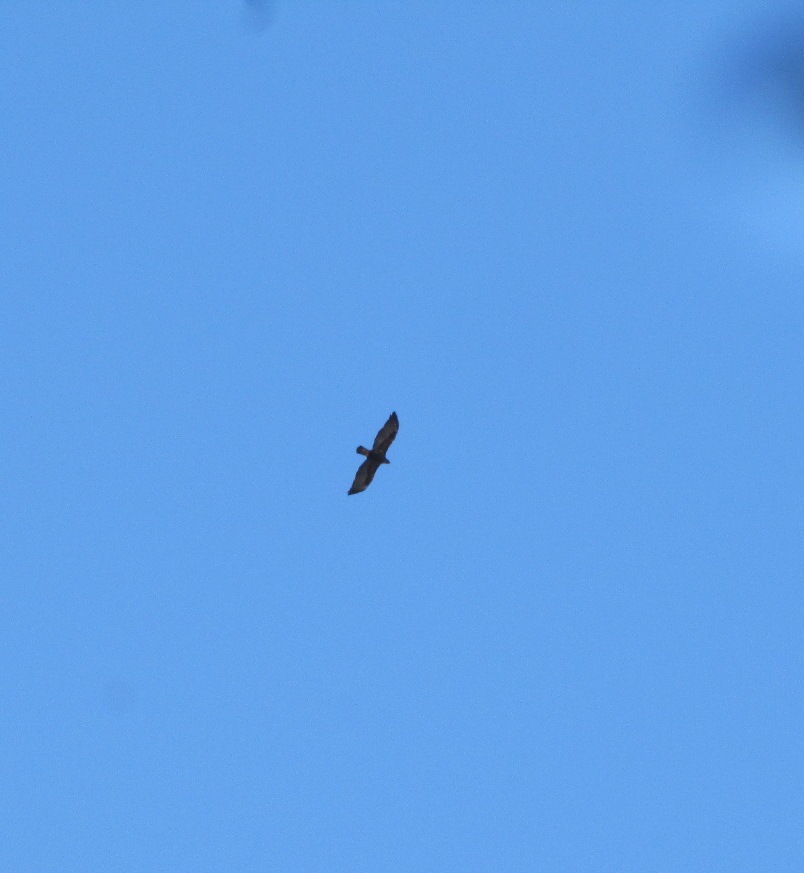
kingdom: Animalia
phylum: Chordata
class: Aves
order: Accipitriformes
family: Accipitridae
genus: Aquila
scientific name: Aquila chrysaetos
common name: Golden eagle
